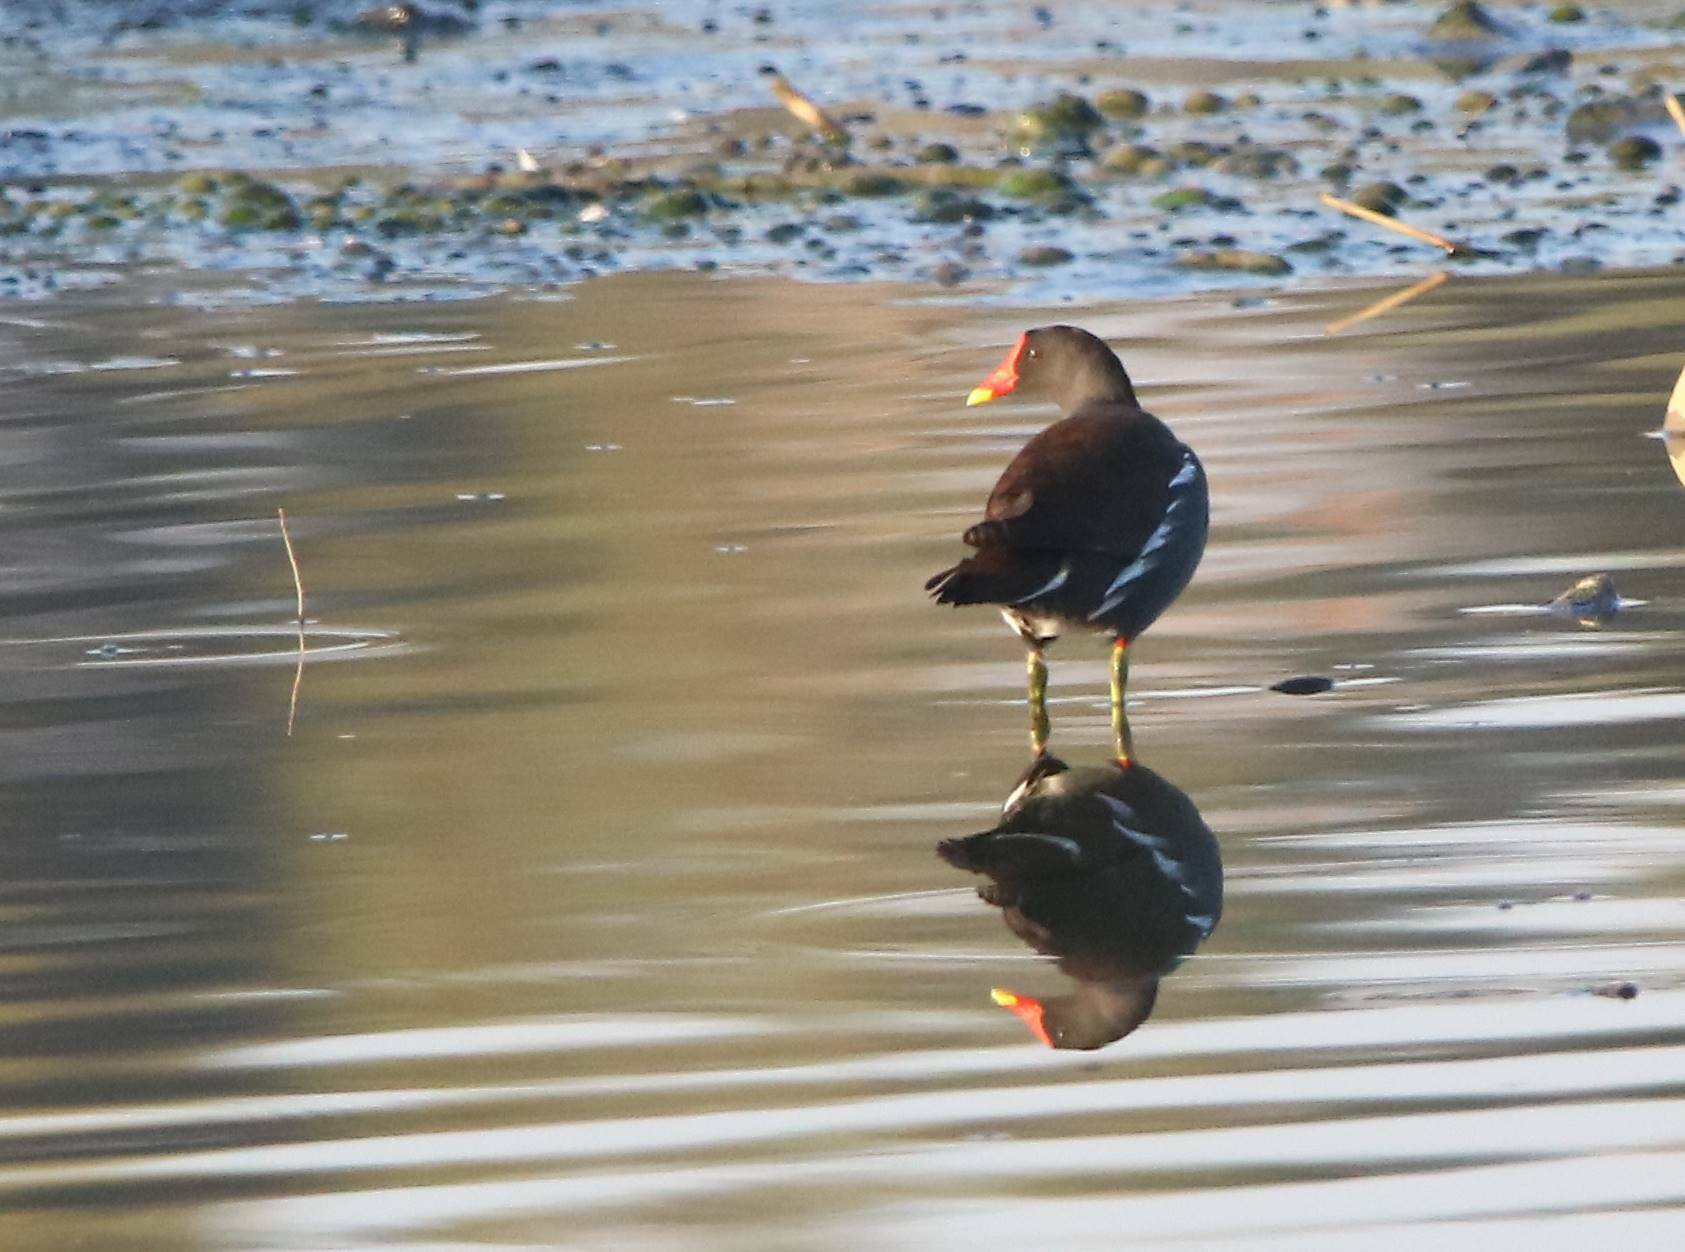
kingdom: Animalia
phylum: Chordata
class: Aves
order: Gruiformes
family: Rallidae
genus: Gallinula
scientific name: Gallinula chloropus
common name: Common moorhen
